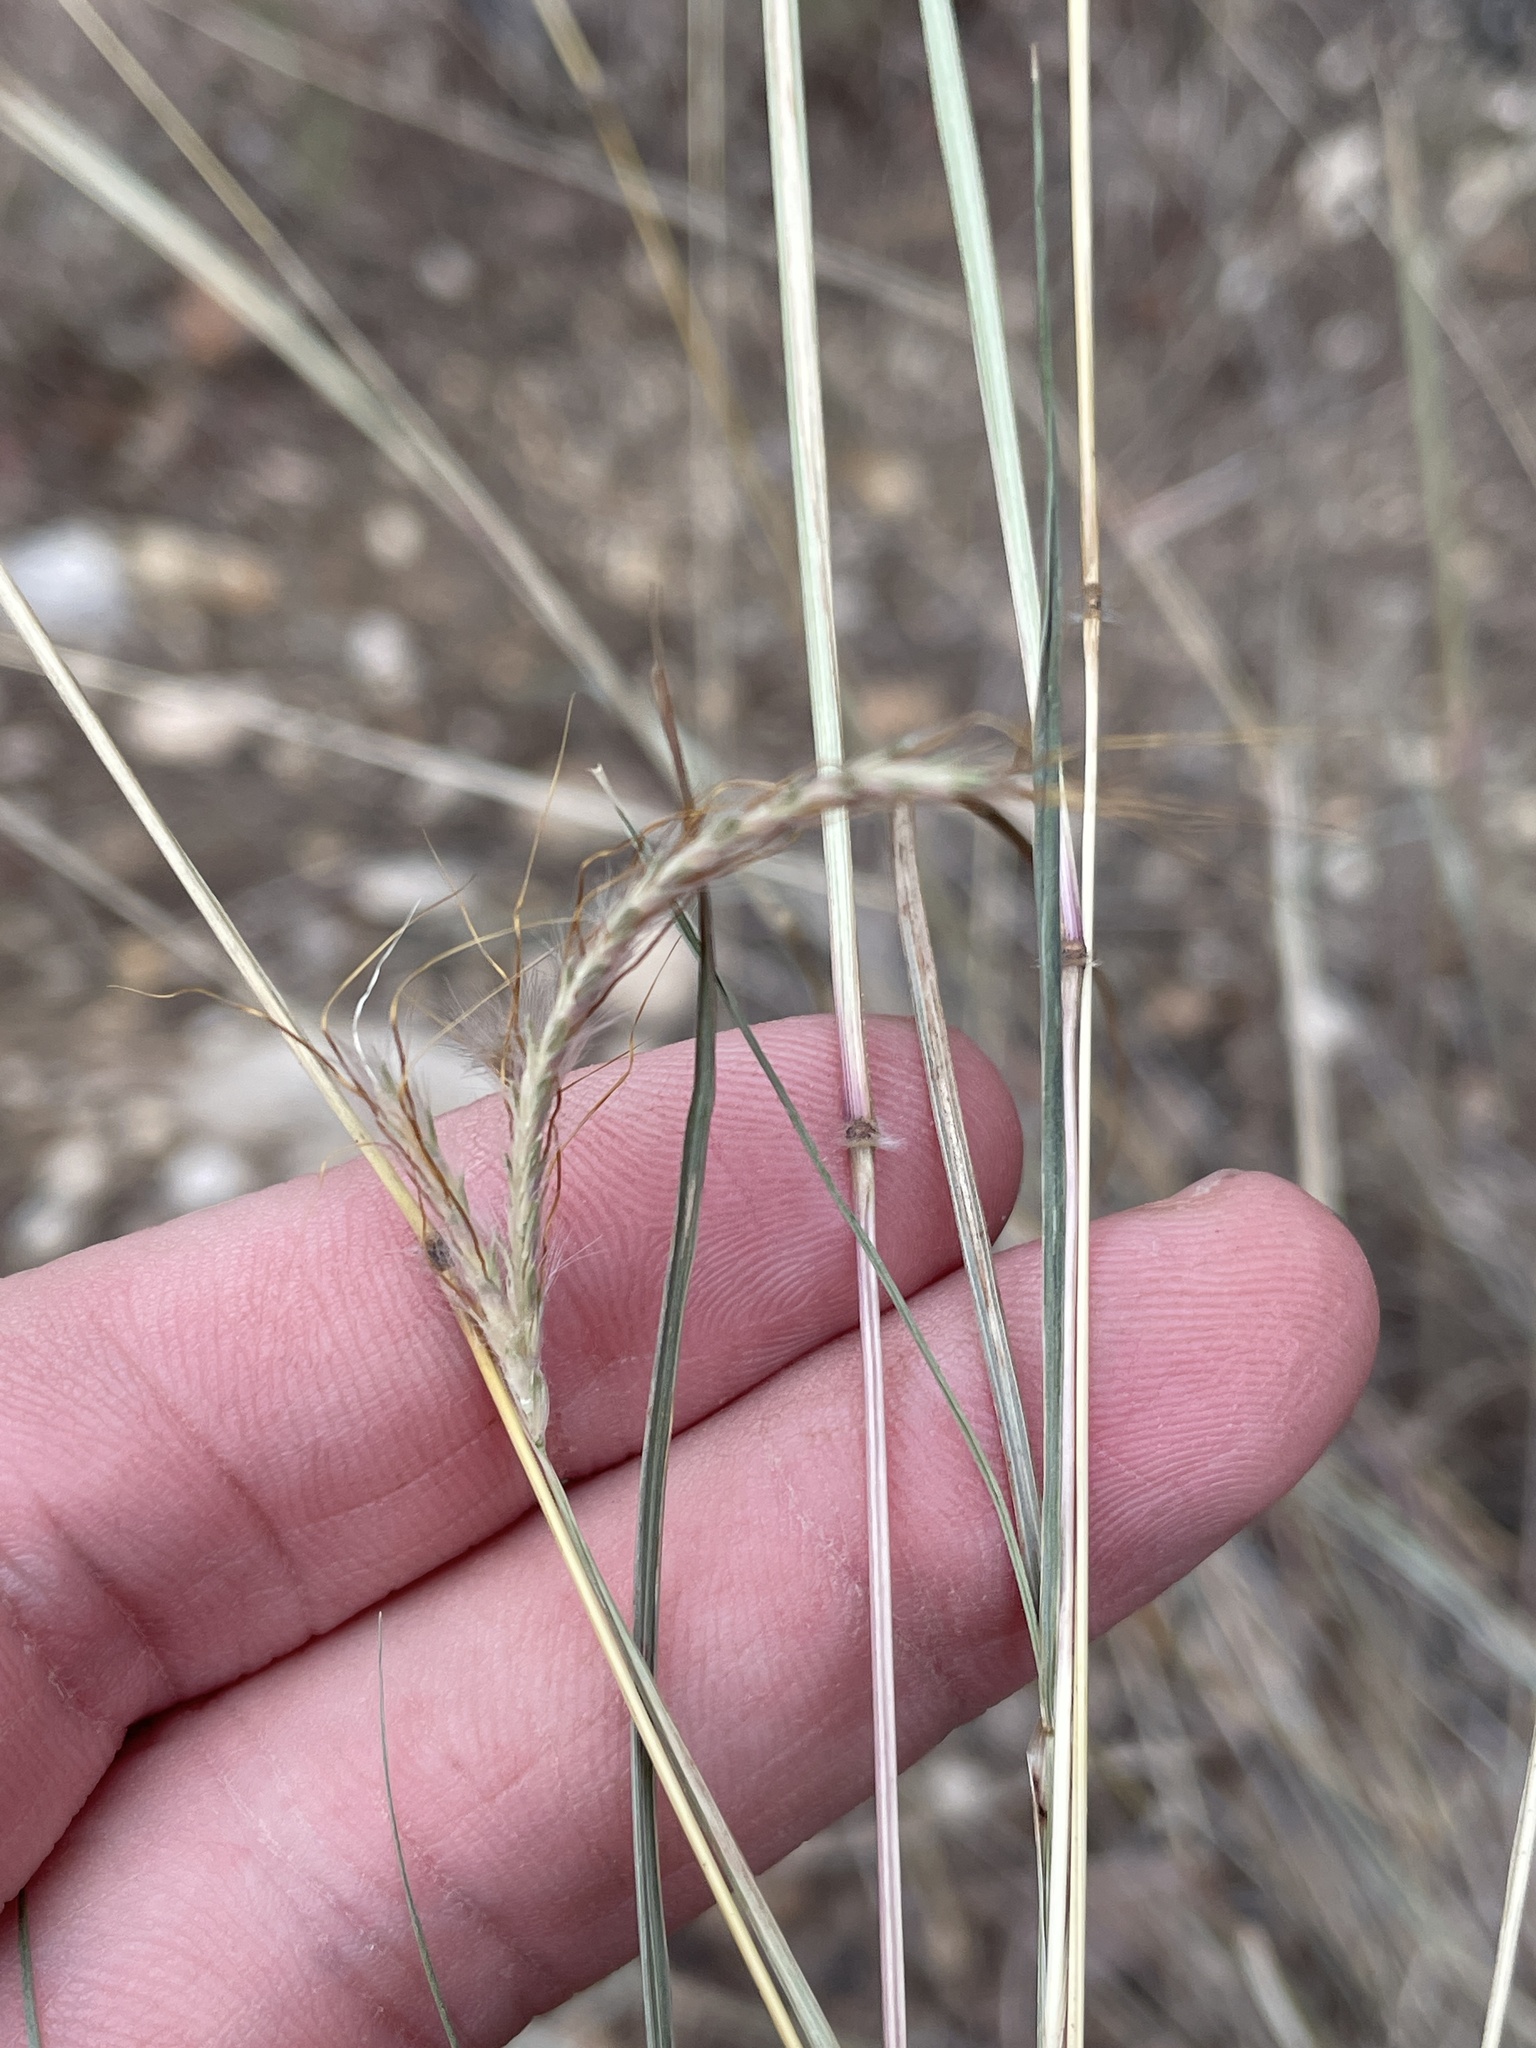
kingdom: Plantae
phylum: Tracheophyta
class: Liliopsida
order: Poales
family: Poaceae
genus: Dichanthium
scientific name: Dichanthium sericeum
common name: Silky bluestem
